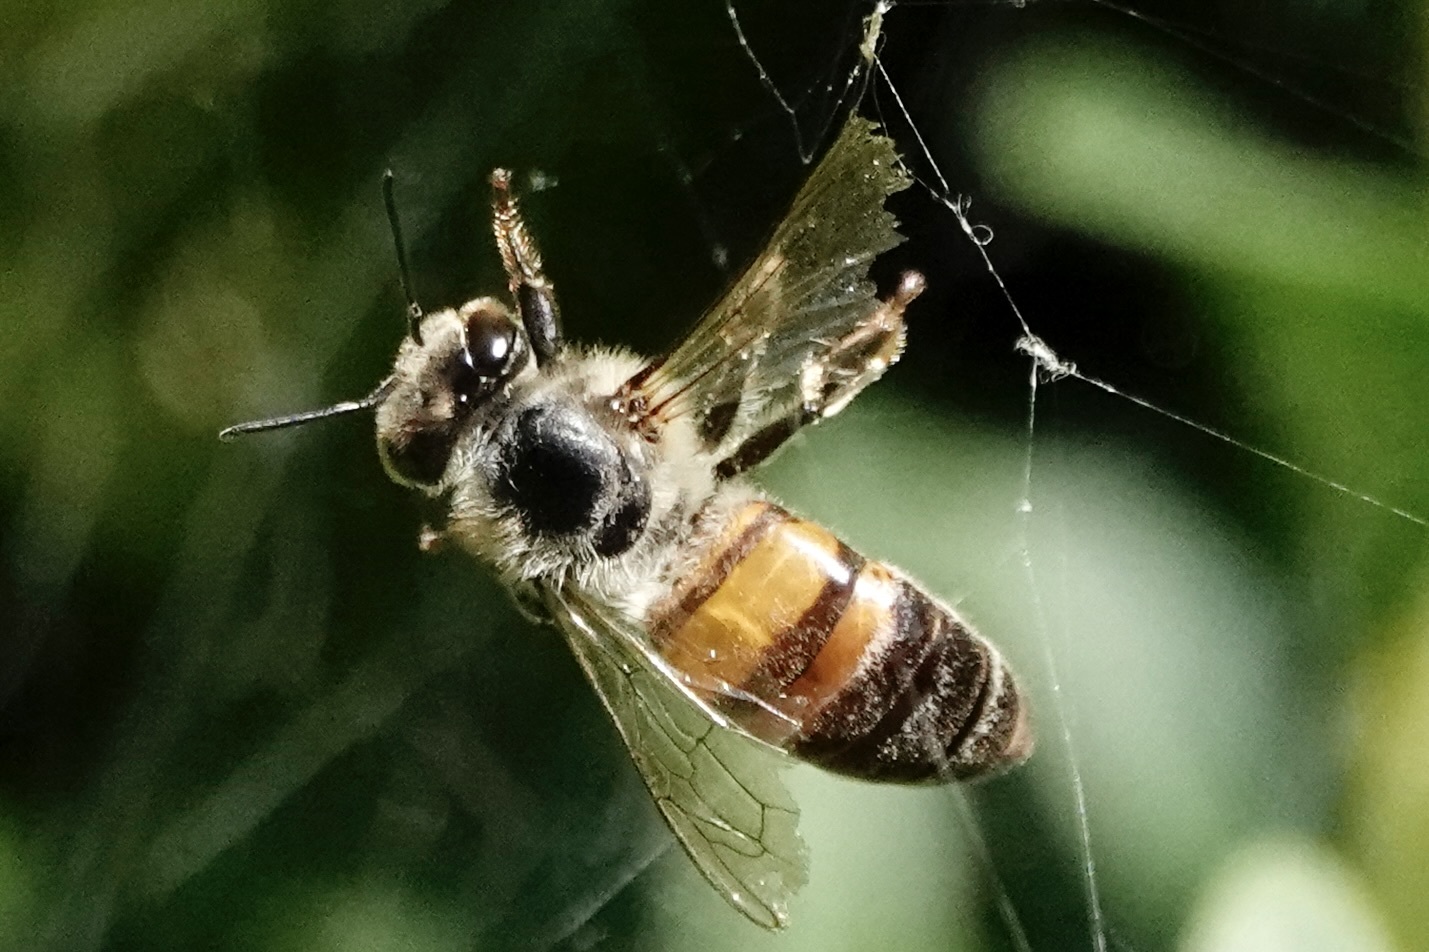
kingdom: Animalia
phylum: Arthropoda
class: Insecta
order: Hymenoptera
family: Apidae
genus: Apis
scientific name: Apis mellifera
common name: Honey bee
